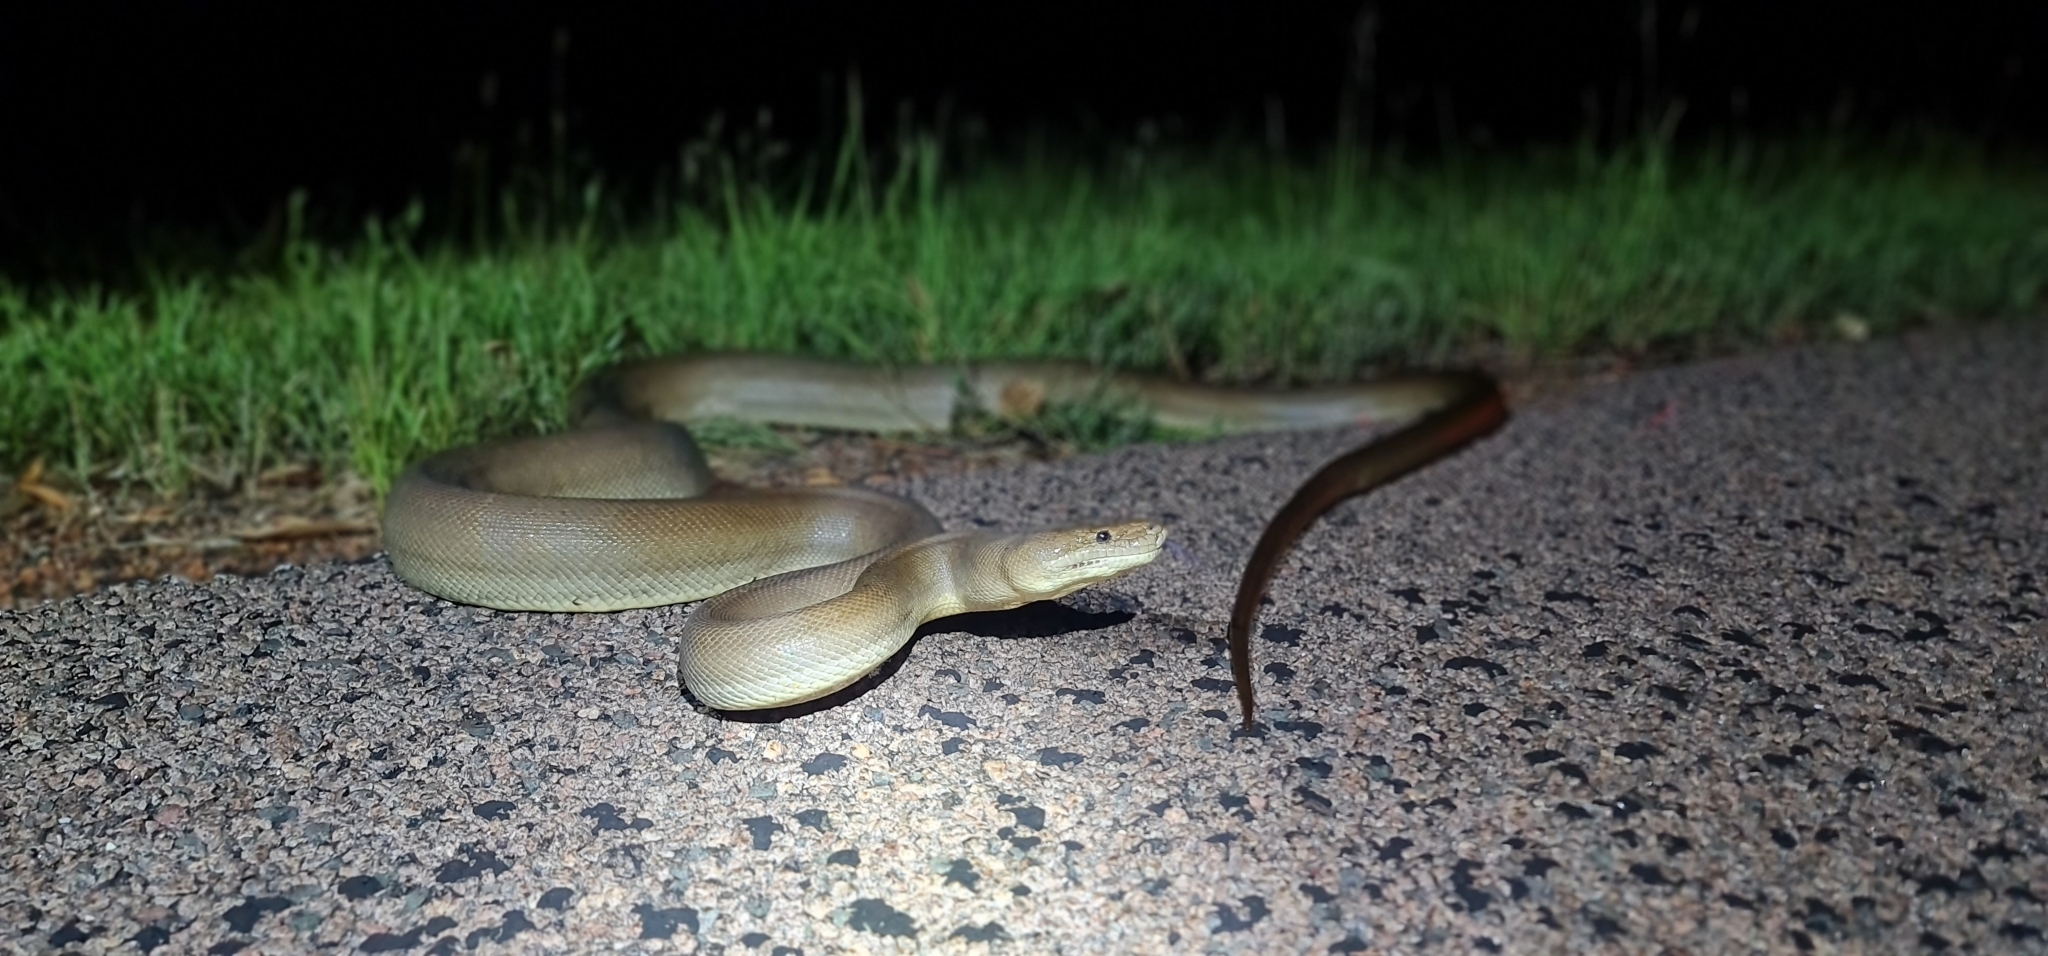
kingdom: Animalia
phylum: Chordata
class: Squamata
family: Pythonidae
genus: Liasis
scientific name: Liasis olivaceus
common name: Olive python
